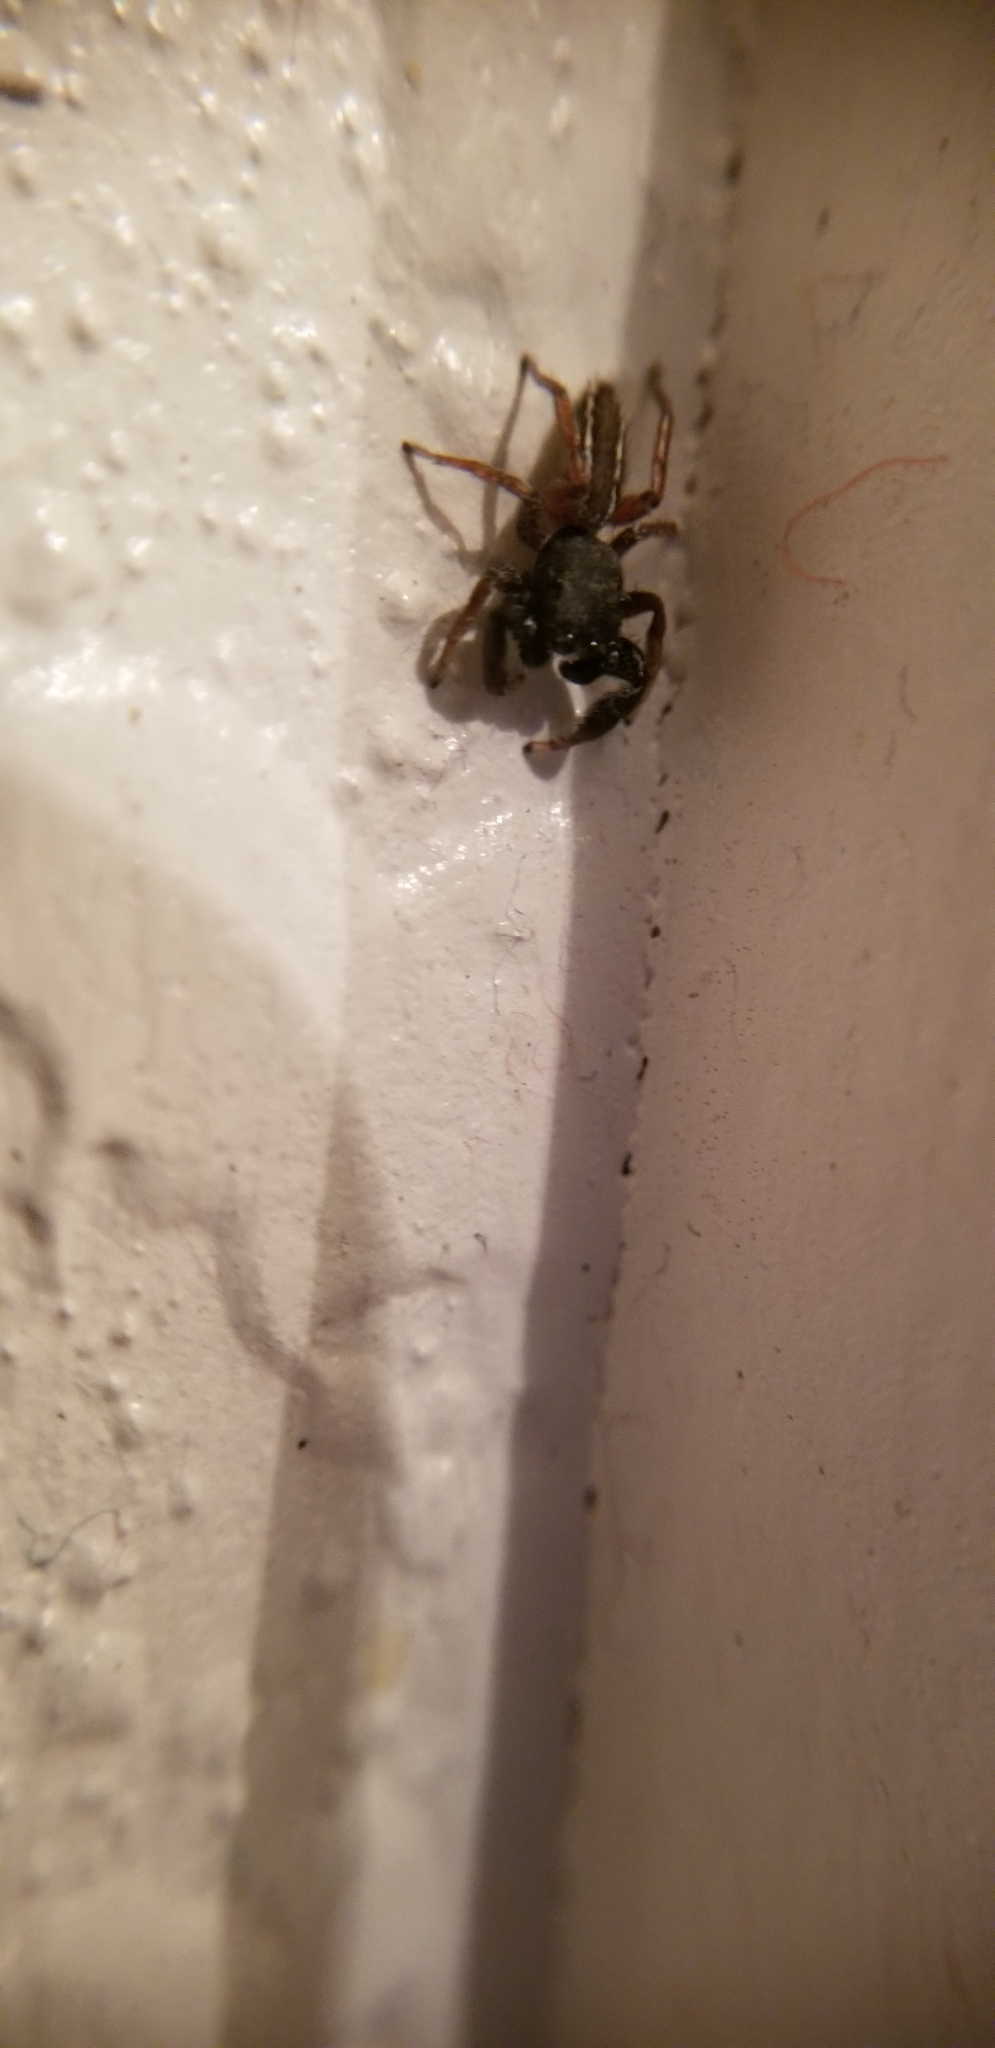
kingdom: Animalia
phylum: Arthropoda
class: Arachnida
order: Araneae
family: Salticidae
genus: Metacyrba
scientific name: Metacyrba taeniola
